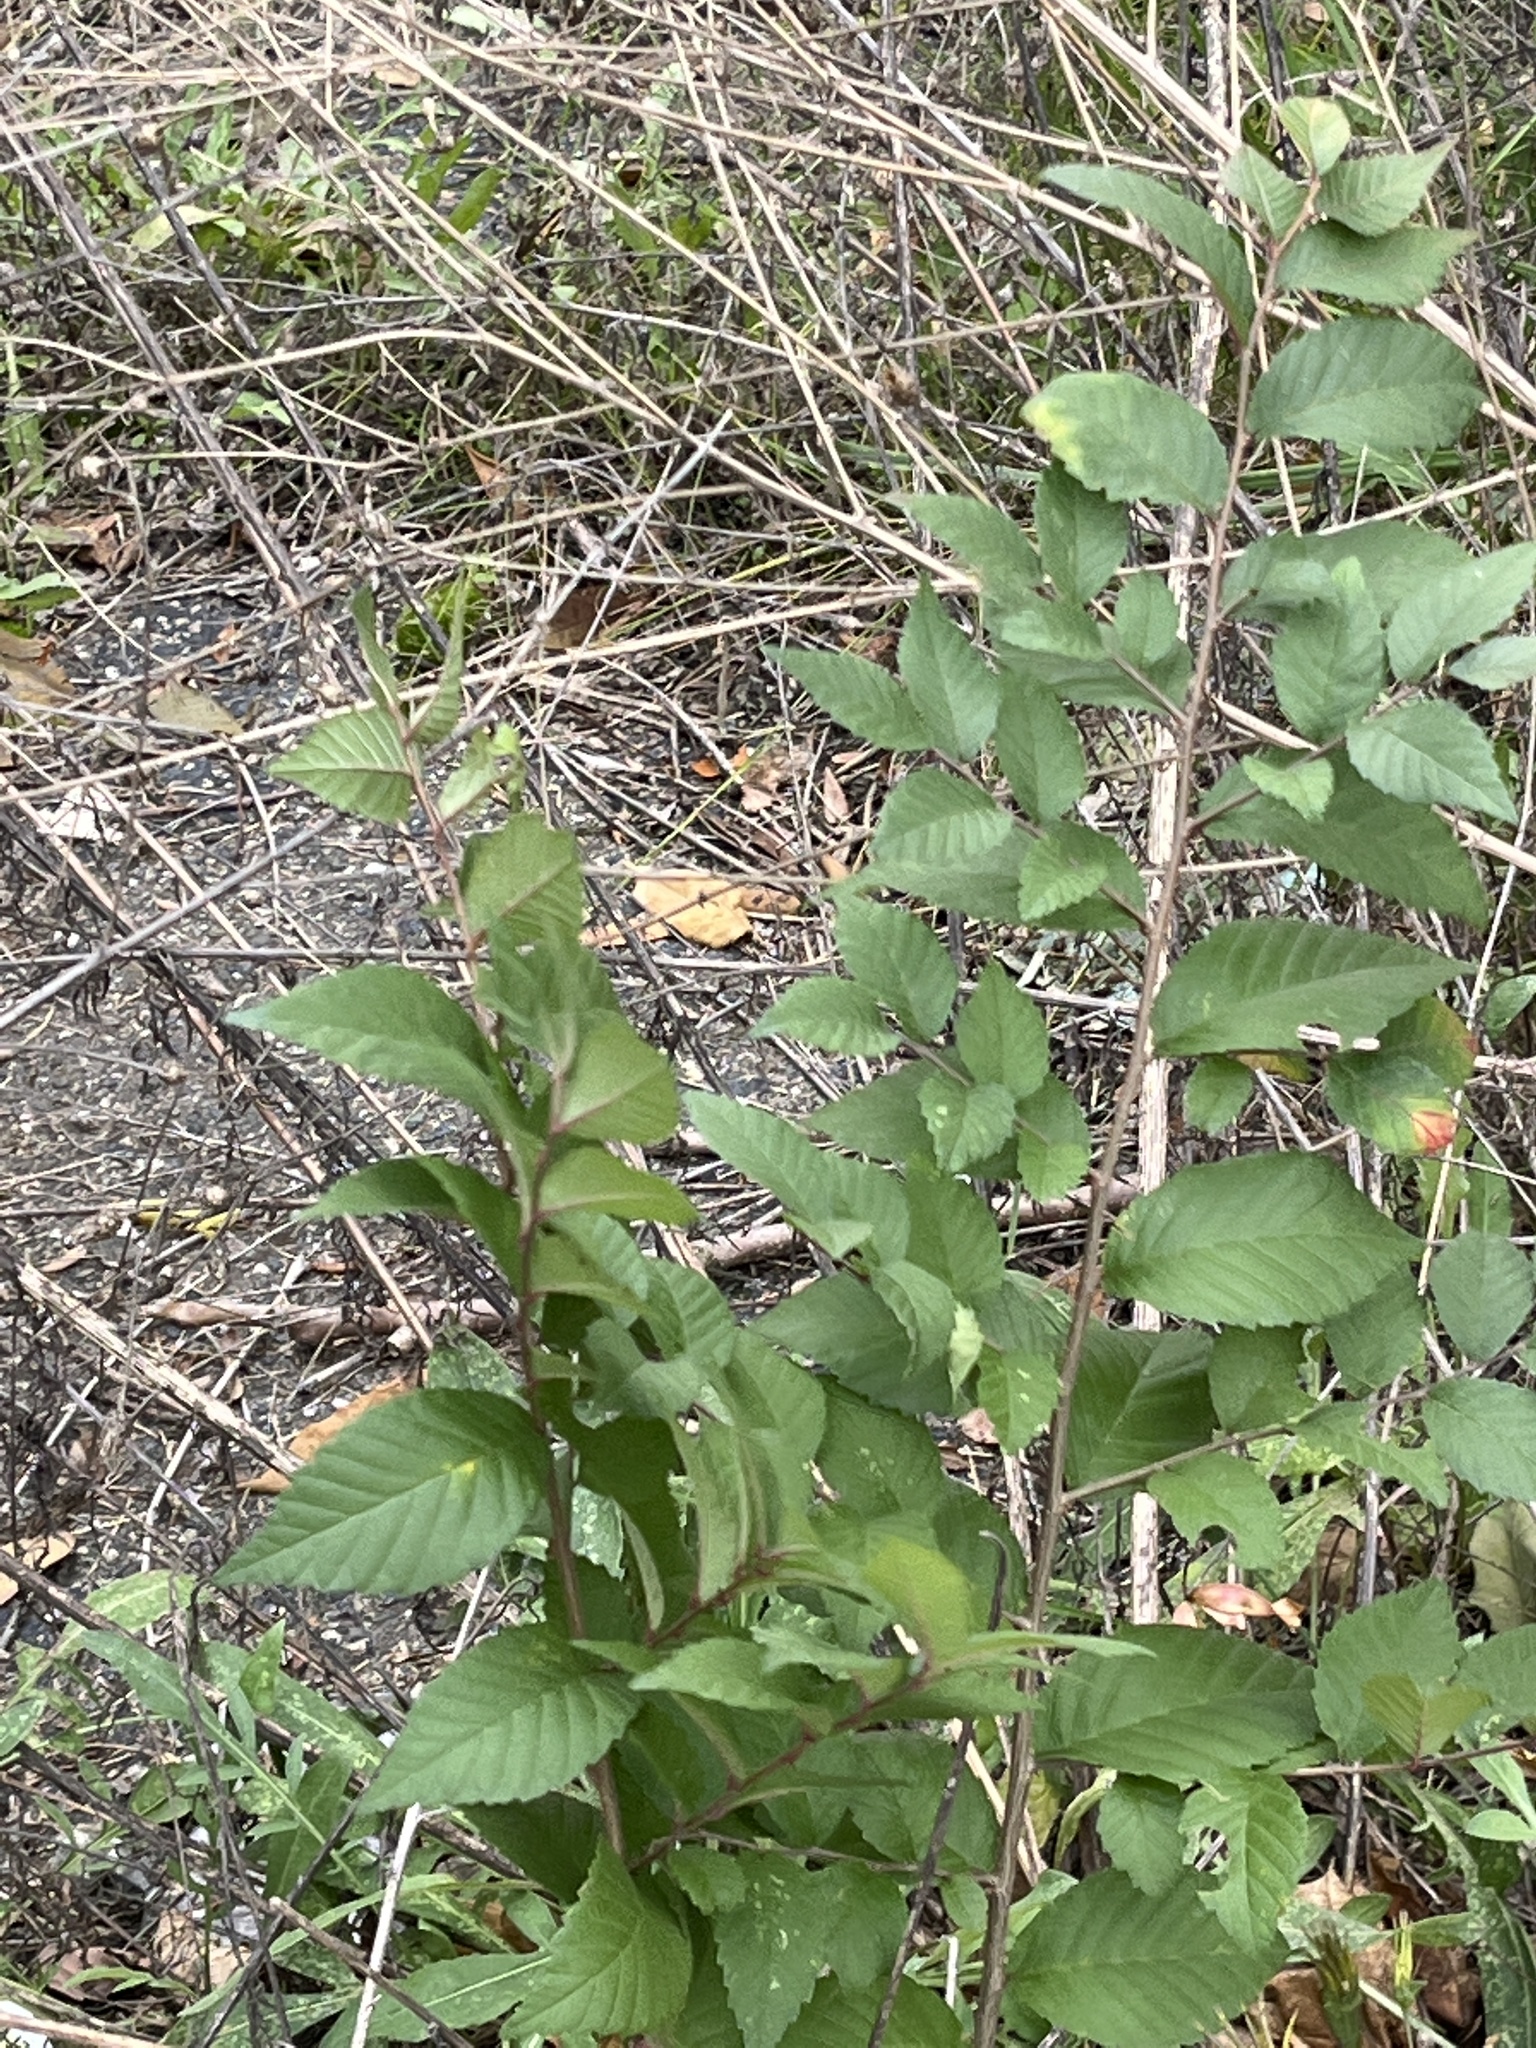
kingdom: Plantae
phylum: Tracheophyta
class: Magnoliopsida
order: Rosales
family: Ulmaceae
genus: Ulmus
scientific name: Ulmus pumila
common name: Siberian elm
